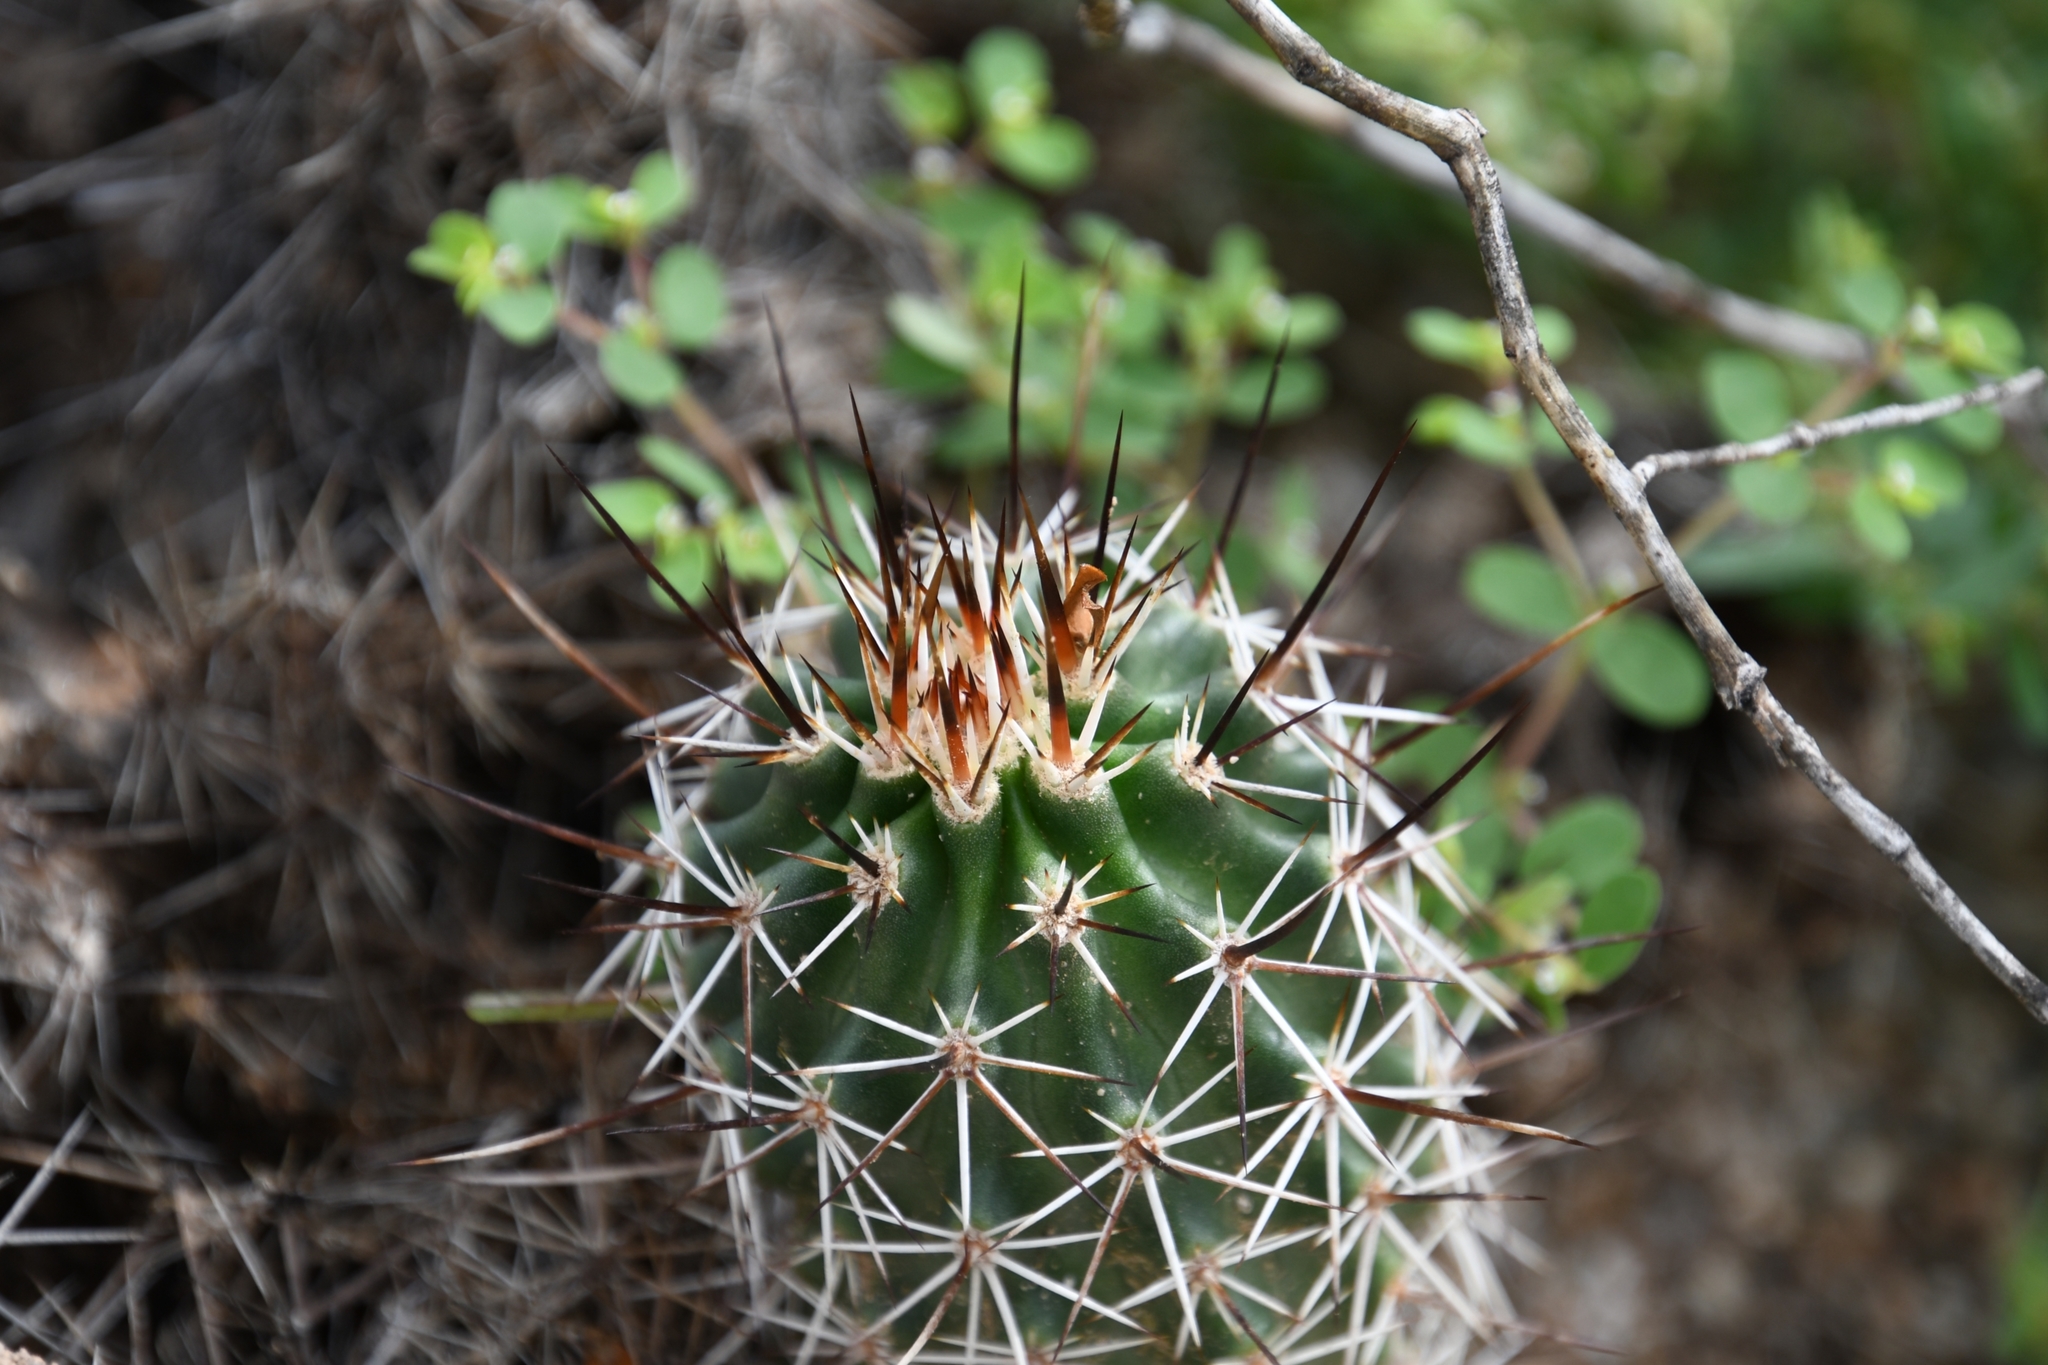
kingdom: Plantae
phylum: Tracheophyta
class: Magnoliopsida
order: Caryophyllales
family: Cactaceae
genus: Echinocereus
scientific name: Echinocereus fasciculatus
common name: Bundle hedgehog
